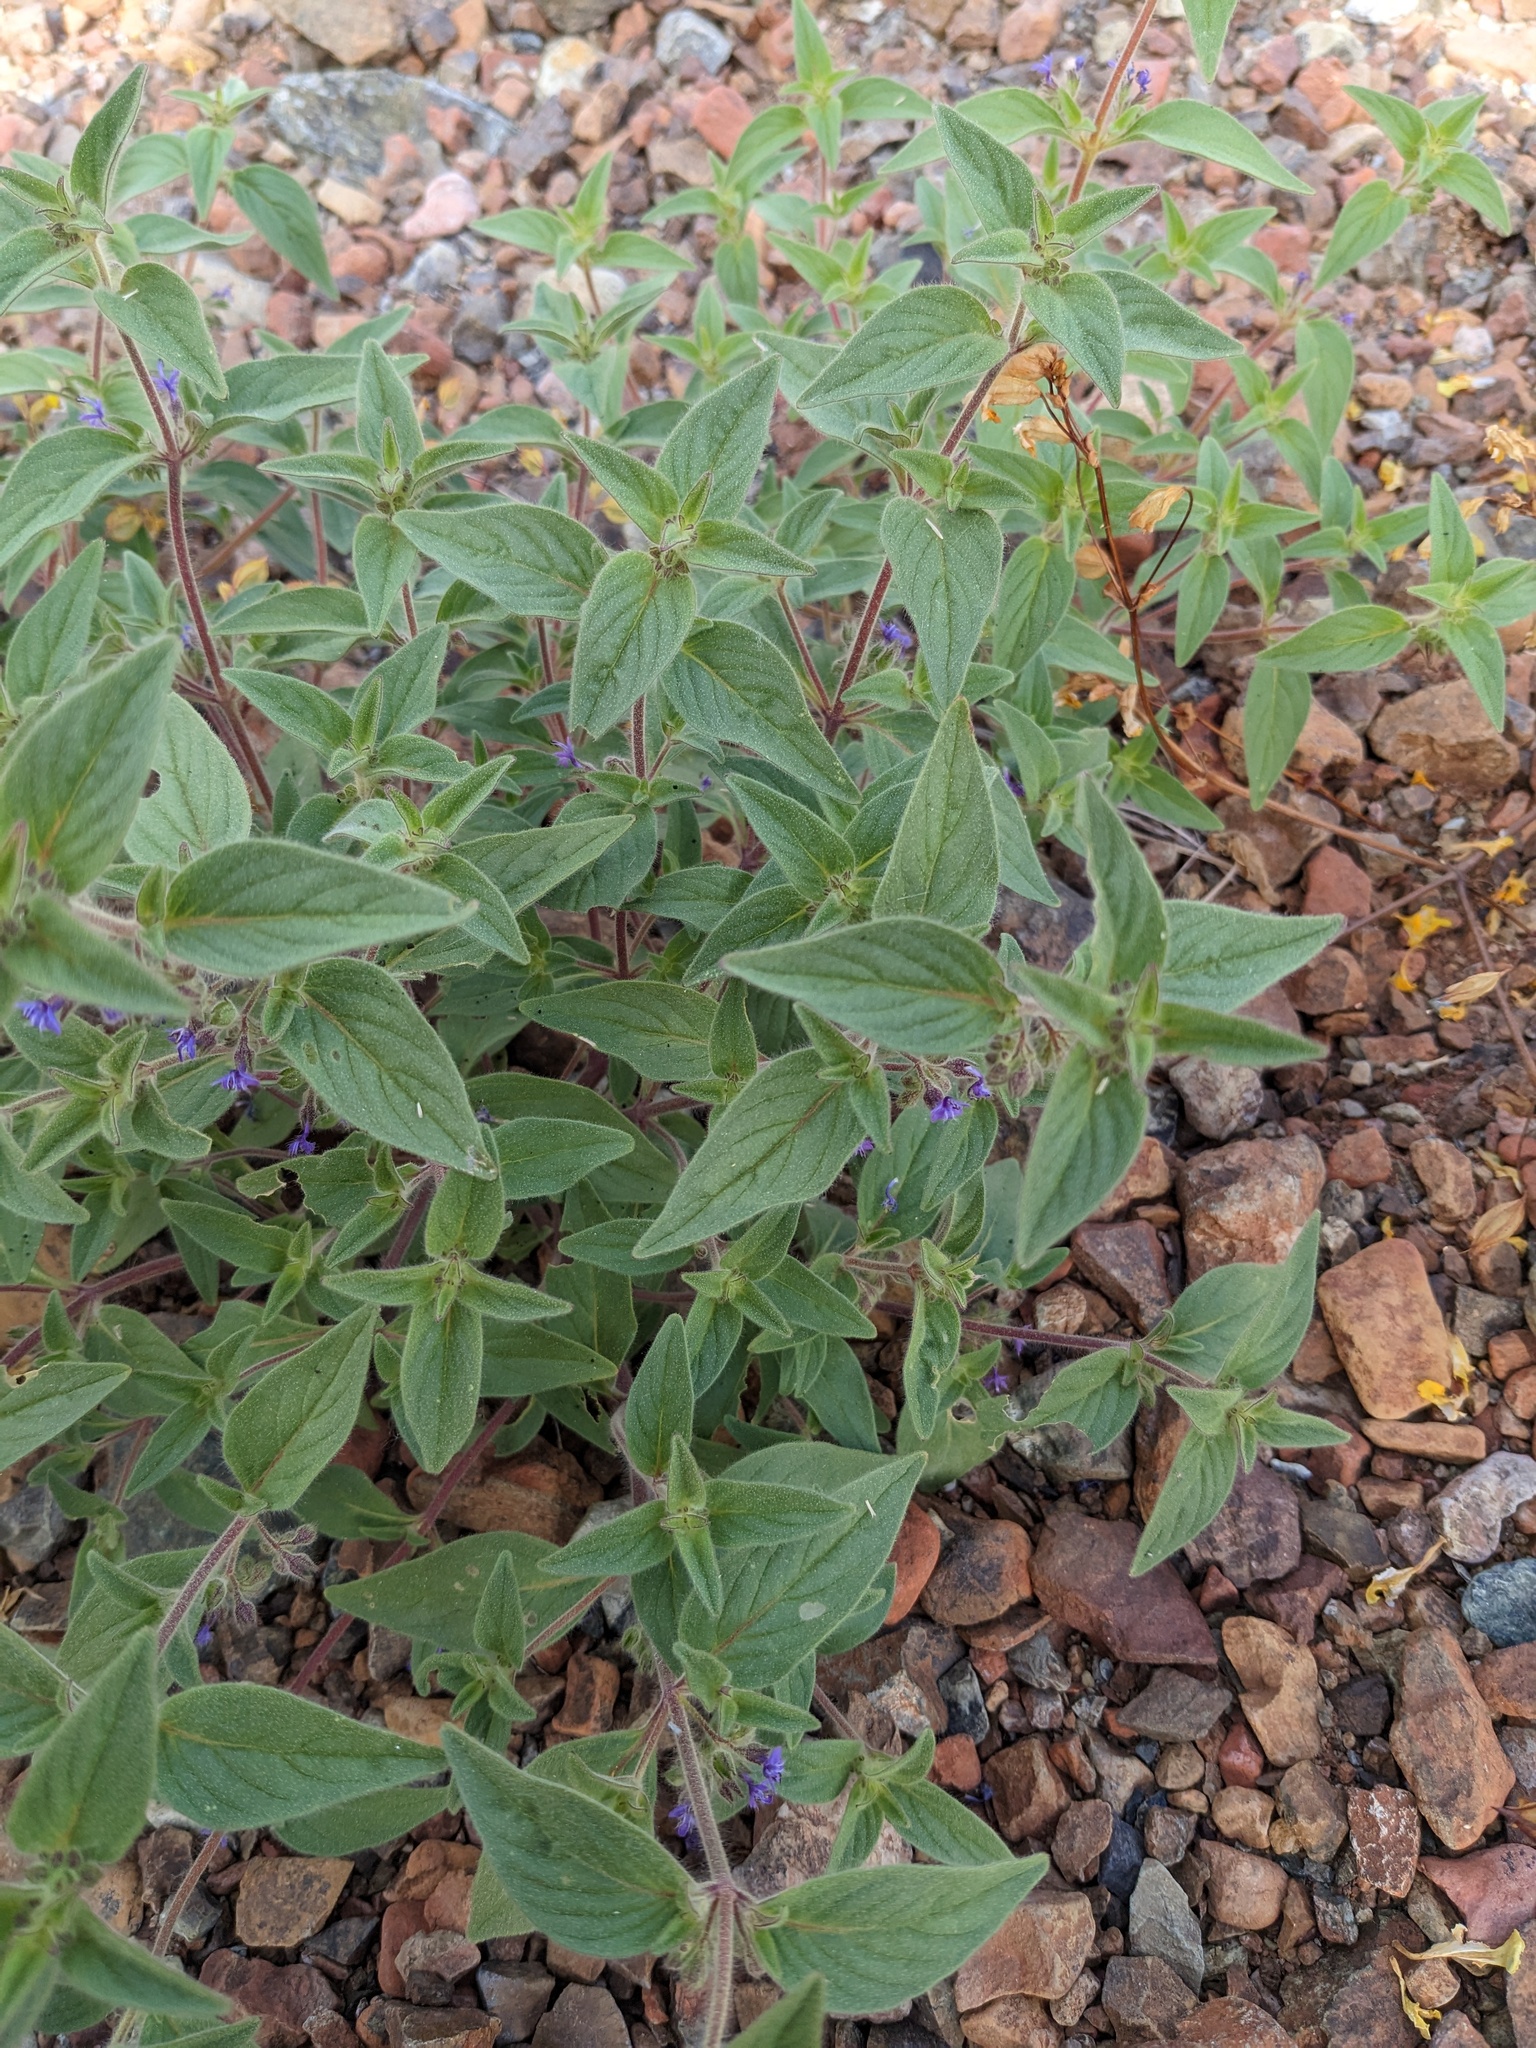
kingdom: Plantae
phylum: Tracheophyta
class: Magnoliopsida
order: Lamiales
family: Lamiaceae
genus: Trichostema
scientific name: Trichostema rubisepalum
